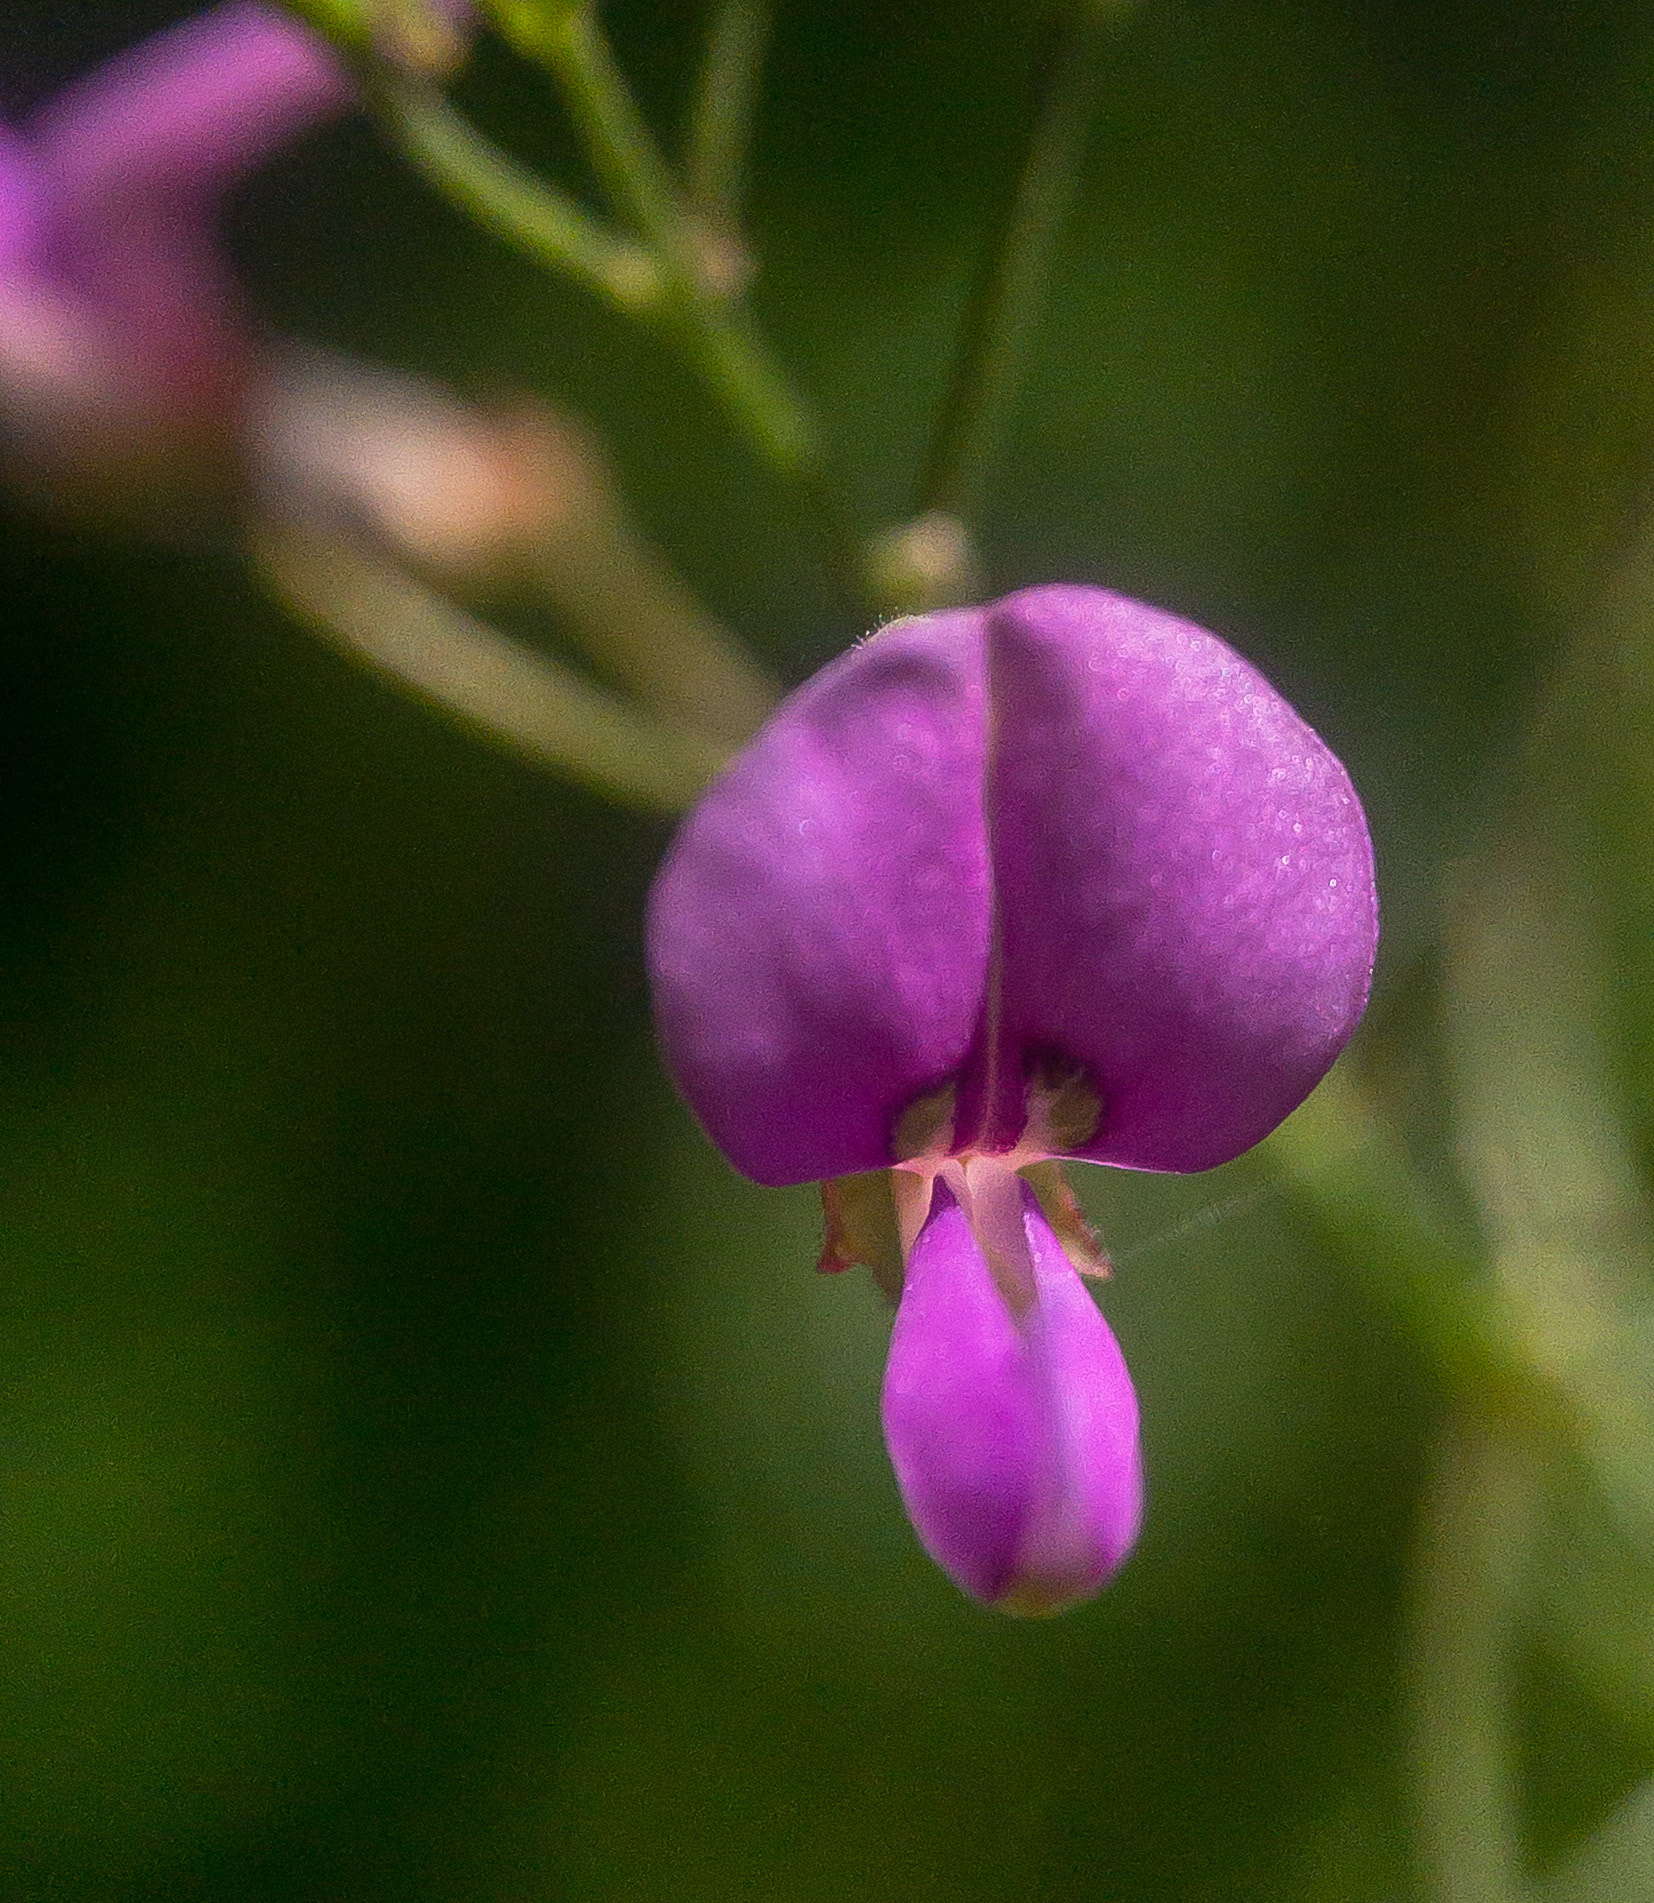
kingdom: Plantae
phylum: Tracheophyta
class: Magnoliopsida
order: Fabales
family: Fabaceae
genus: Desmodium
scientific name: Desmodium paniculatum
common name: Panicled tick-clover
